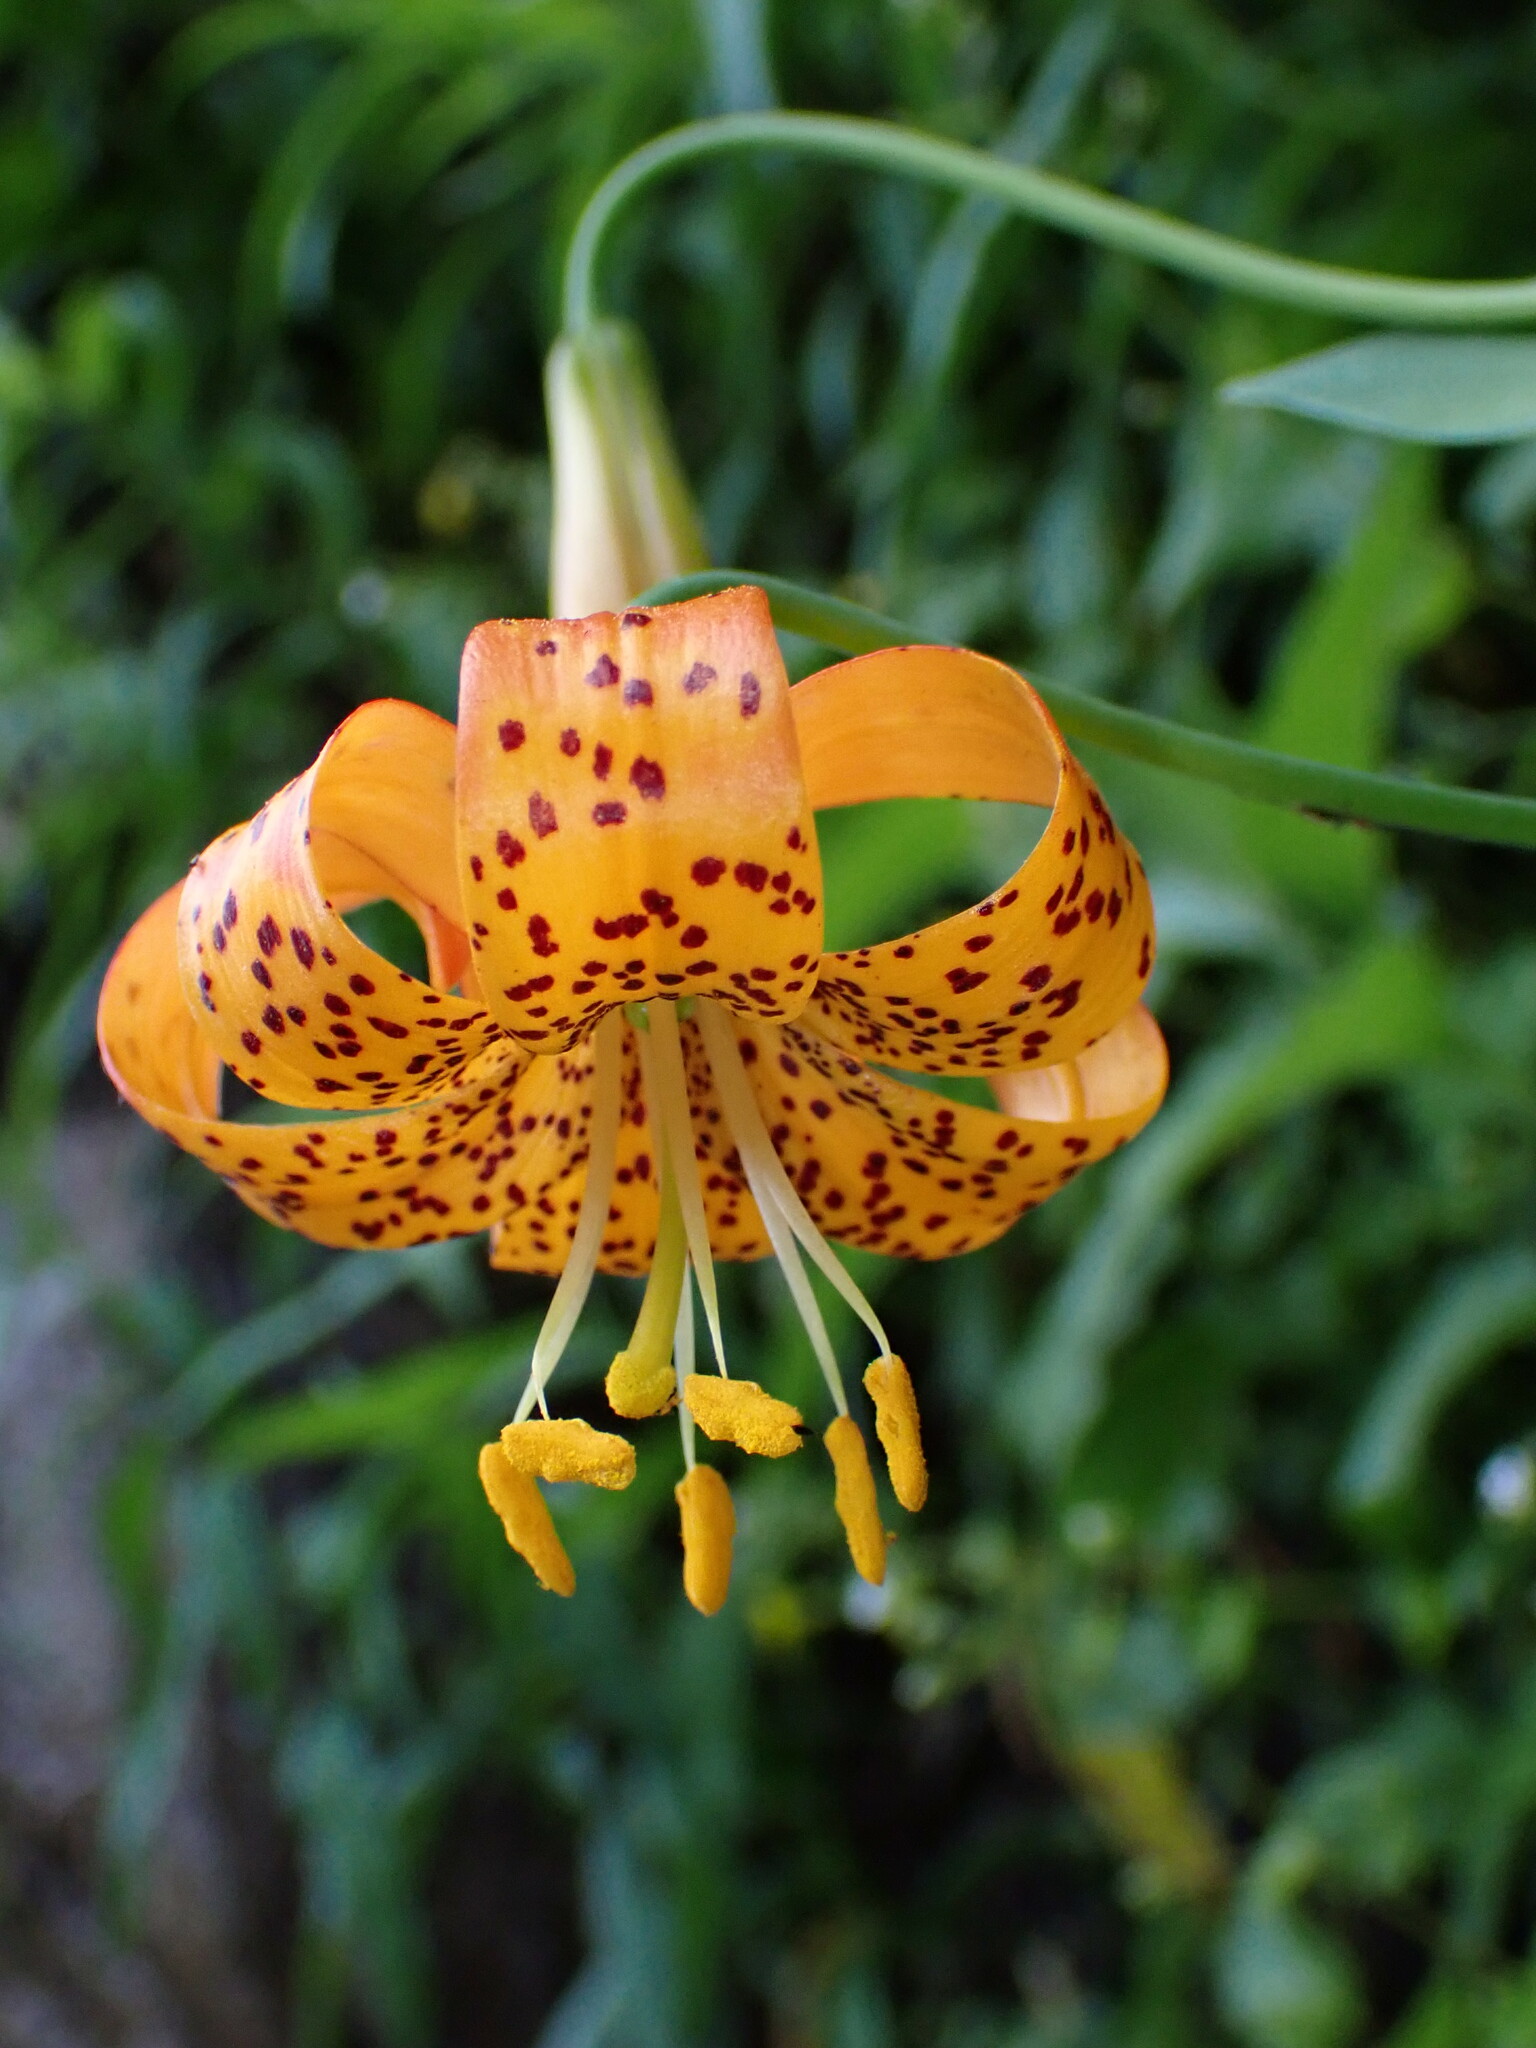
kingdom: Plantae
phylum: Tracheophyta
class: Liliopsida
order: Liliales
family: Liliaceae
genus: Lilium
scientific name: Lilium pardalinum
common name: Panther lily
